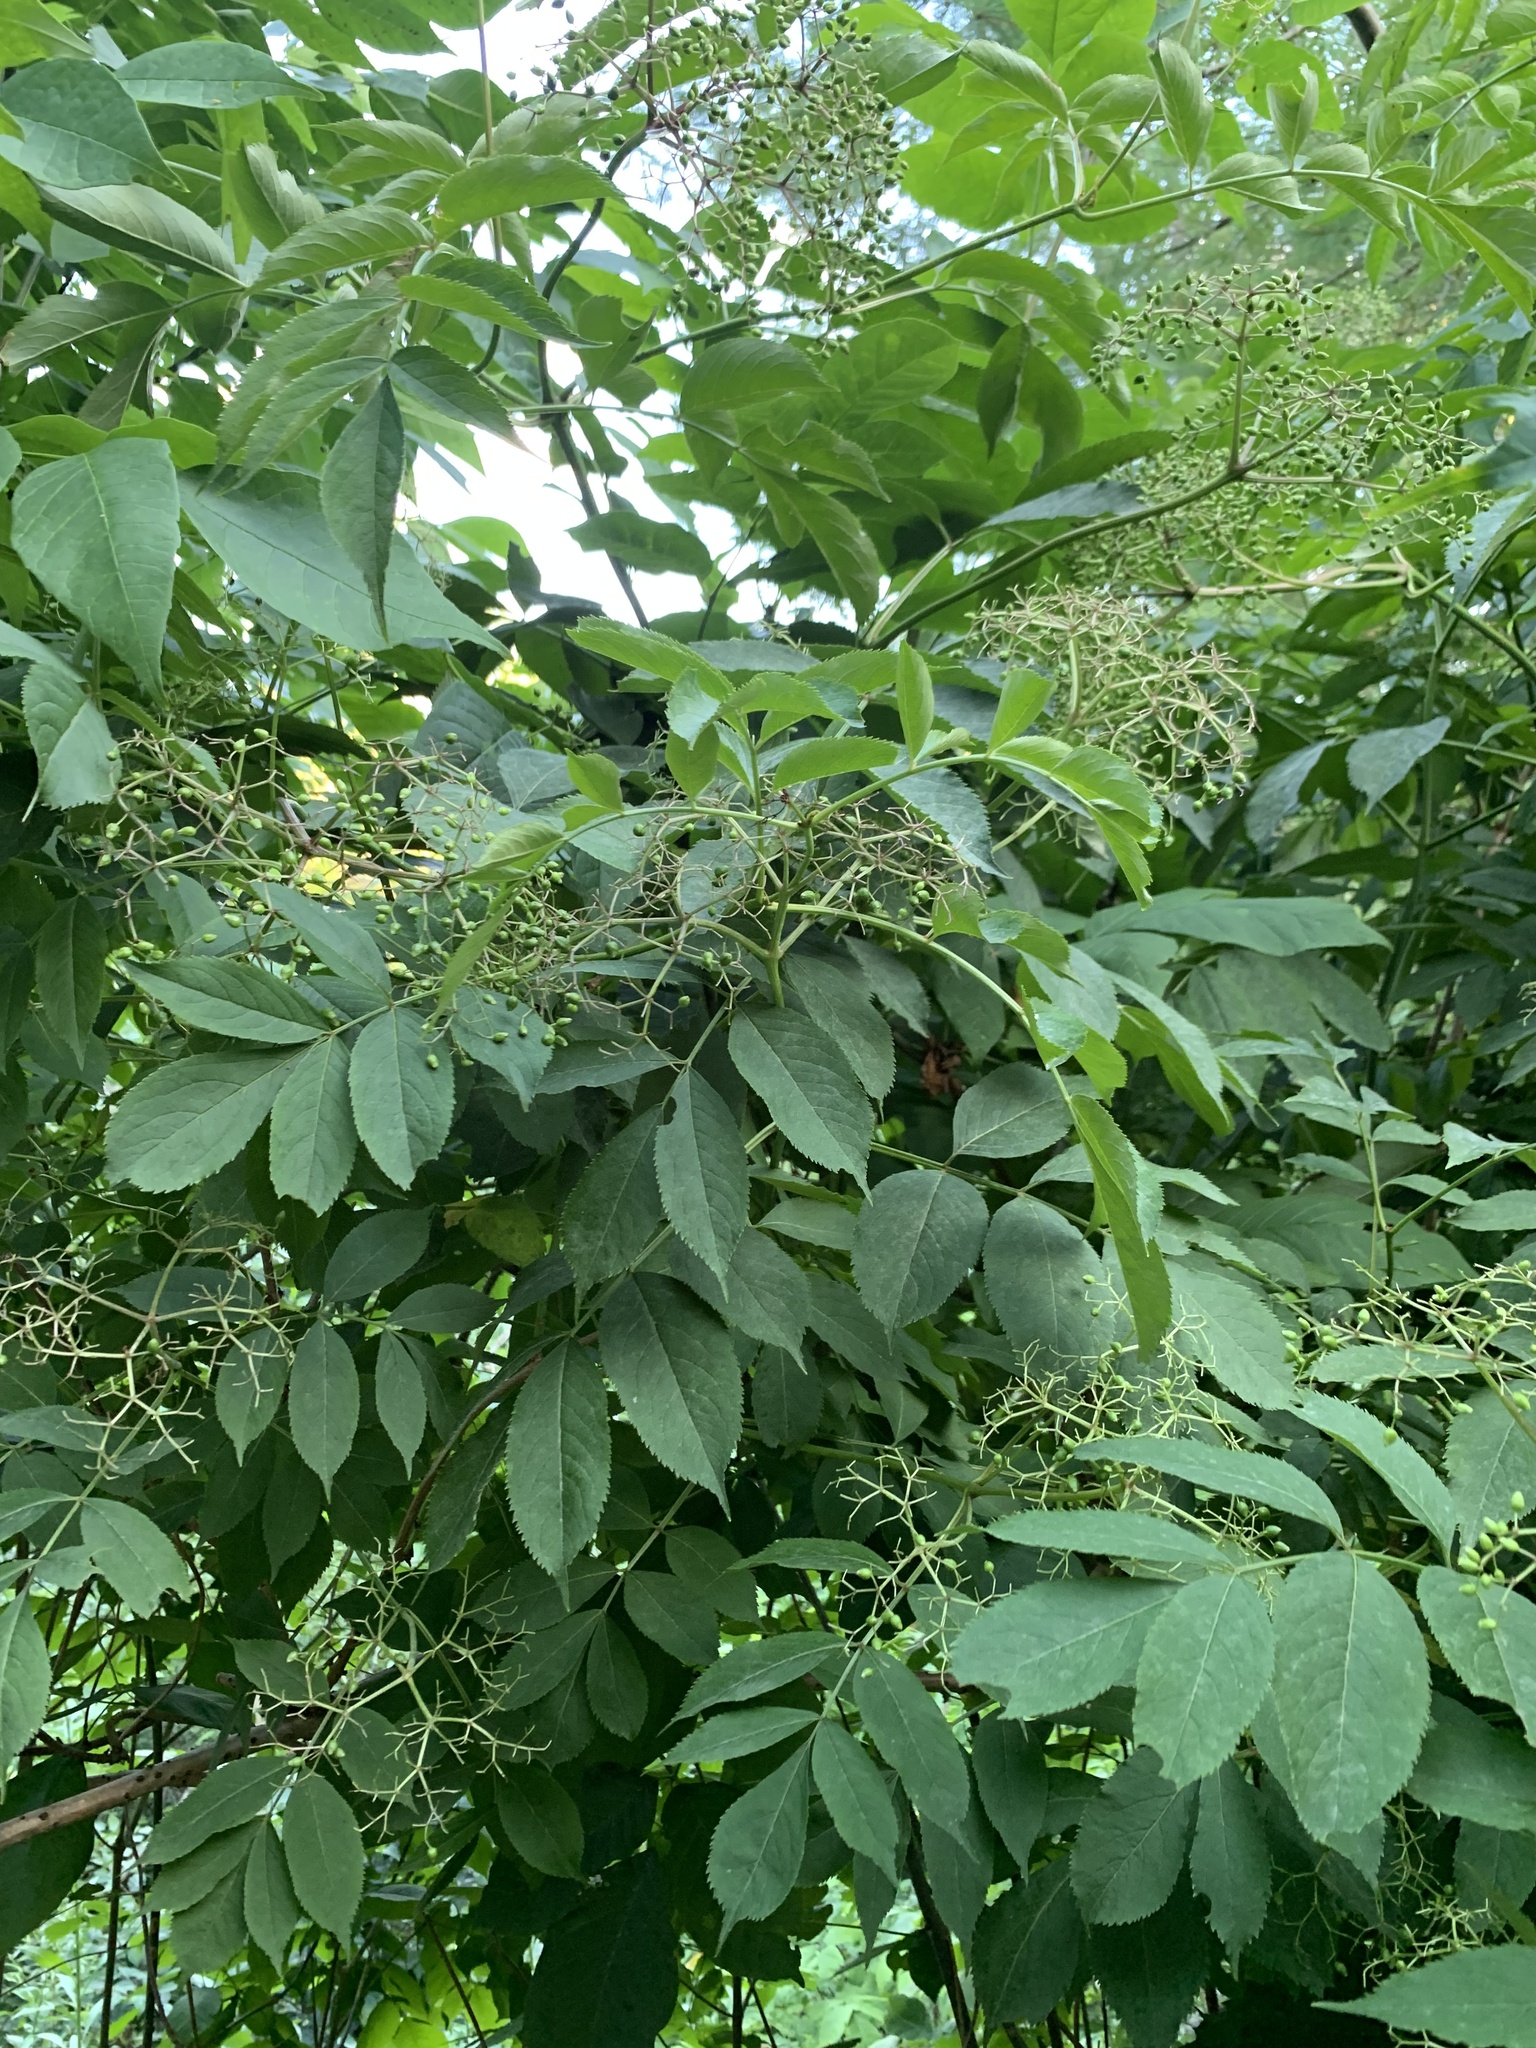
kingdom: Plantae
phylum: Tracheophyta
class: Magnoliopsida
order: Dipsacales
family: Viburnaceae
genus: Sambucus
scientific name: Sambucus canadensis
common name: American elder
